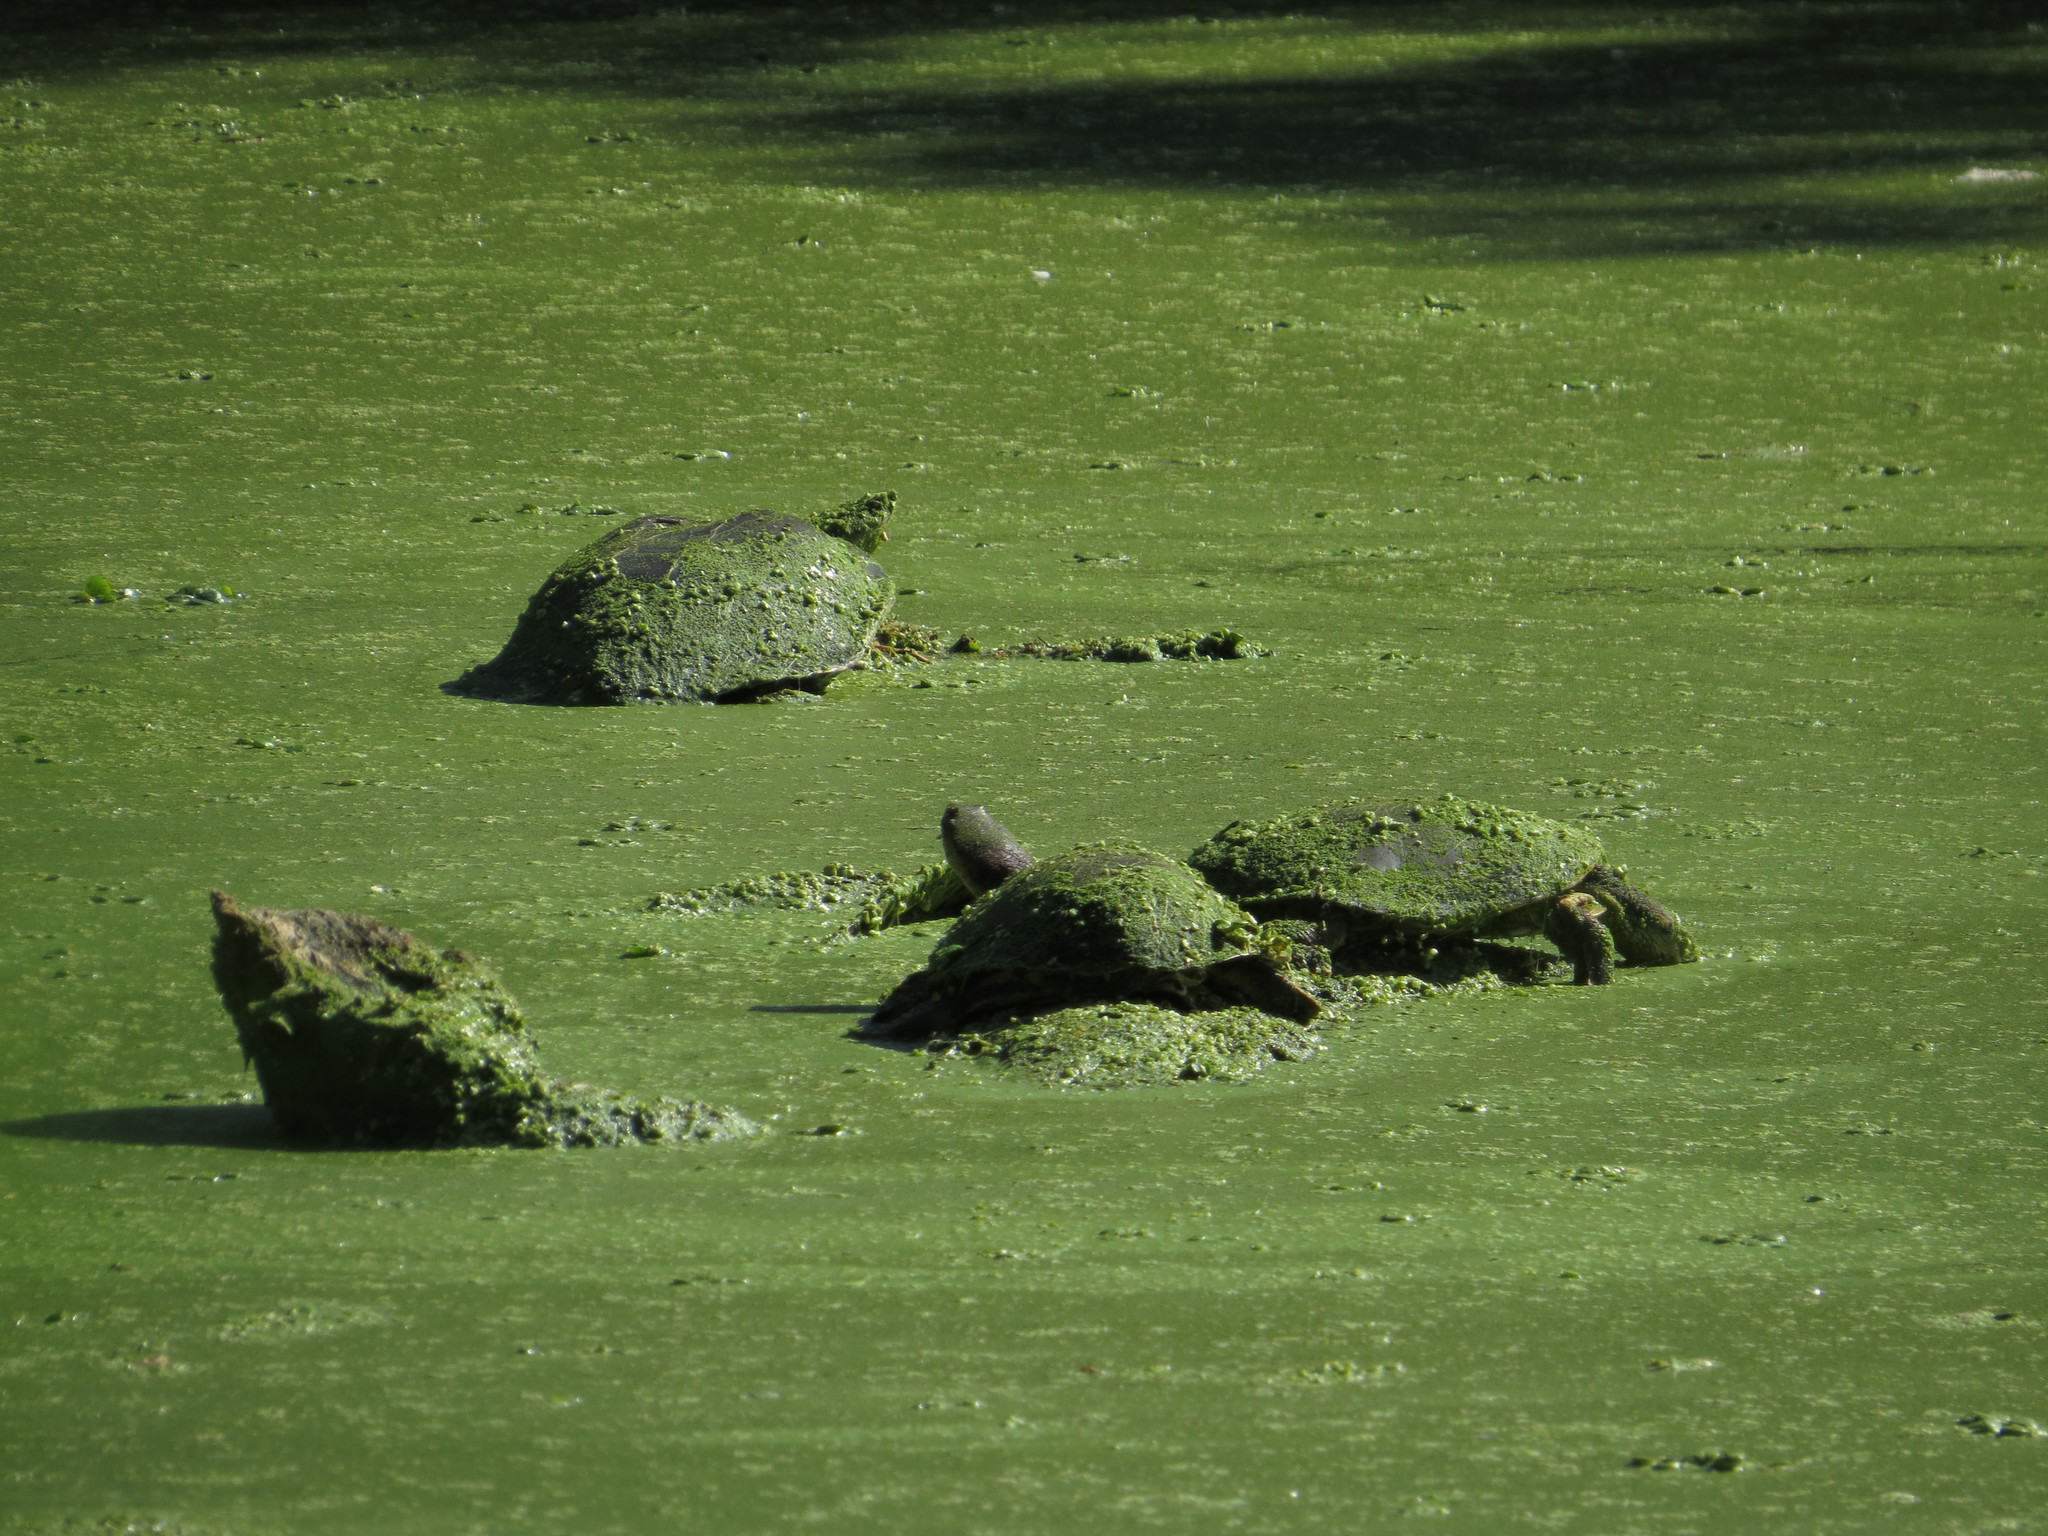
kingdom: Animalia
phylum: Chordata
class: Testudines
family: Chelidae
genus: Phrynops
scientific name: Phrynops hilarii
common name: Side-necked turtle of saint hillaire
